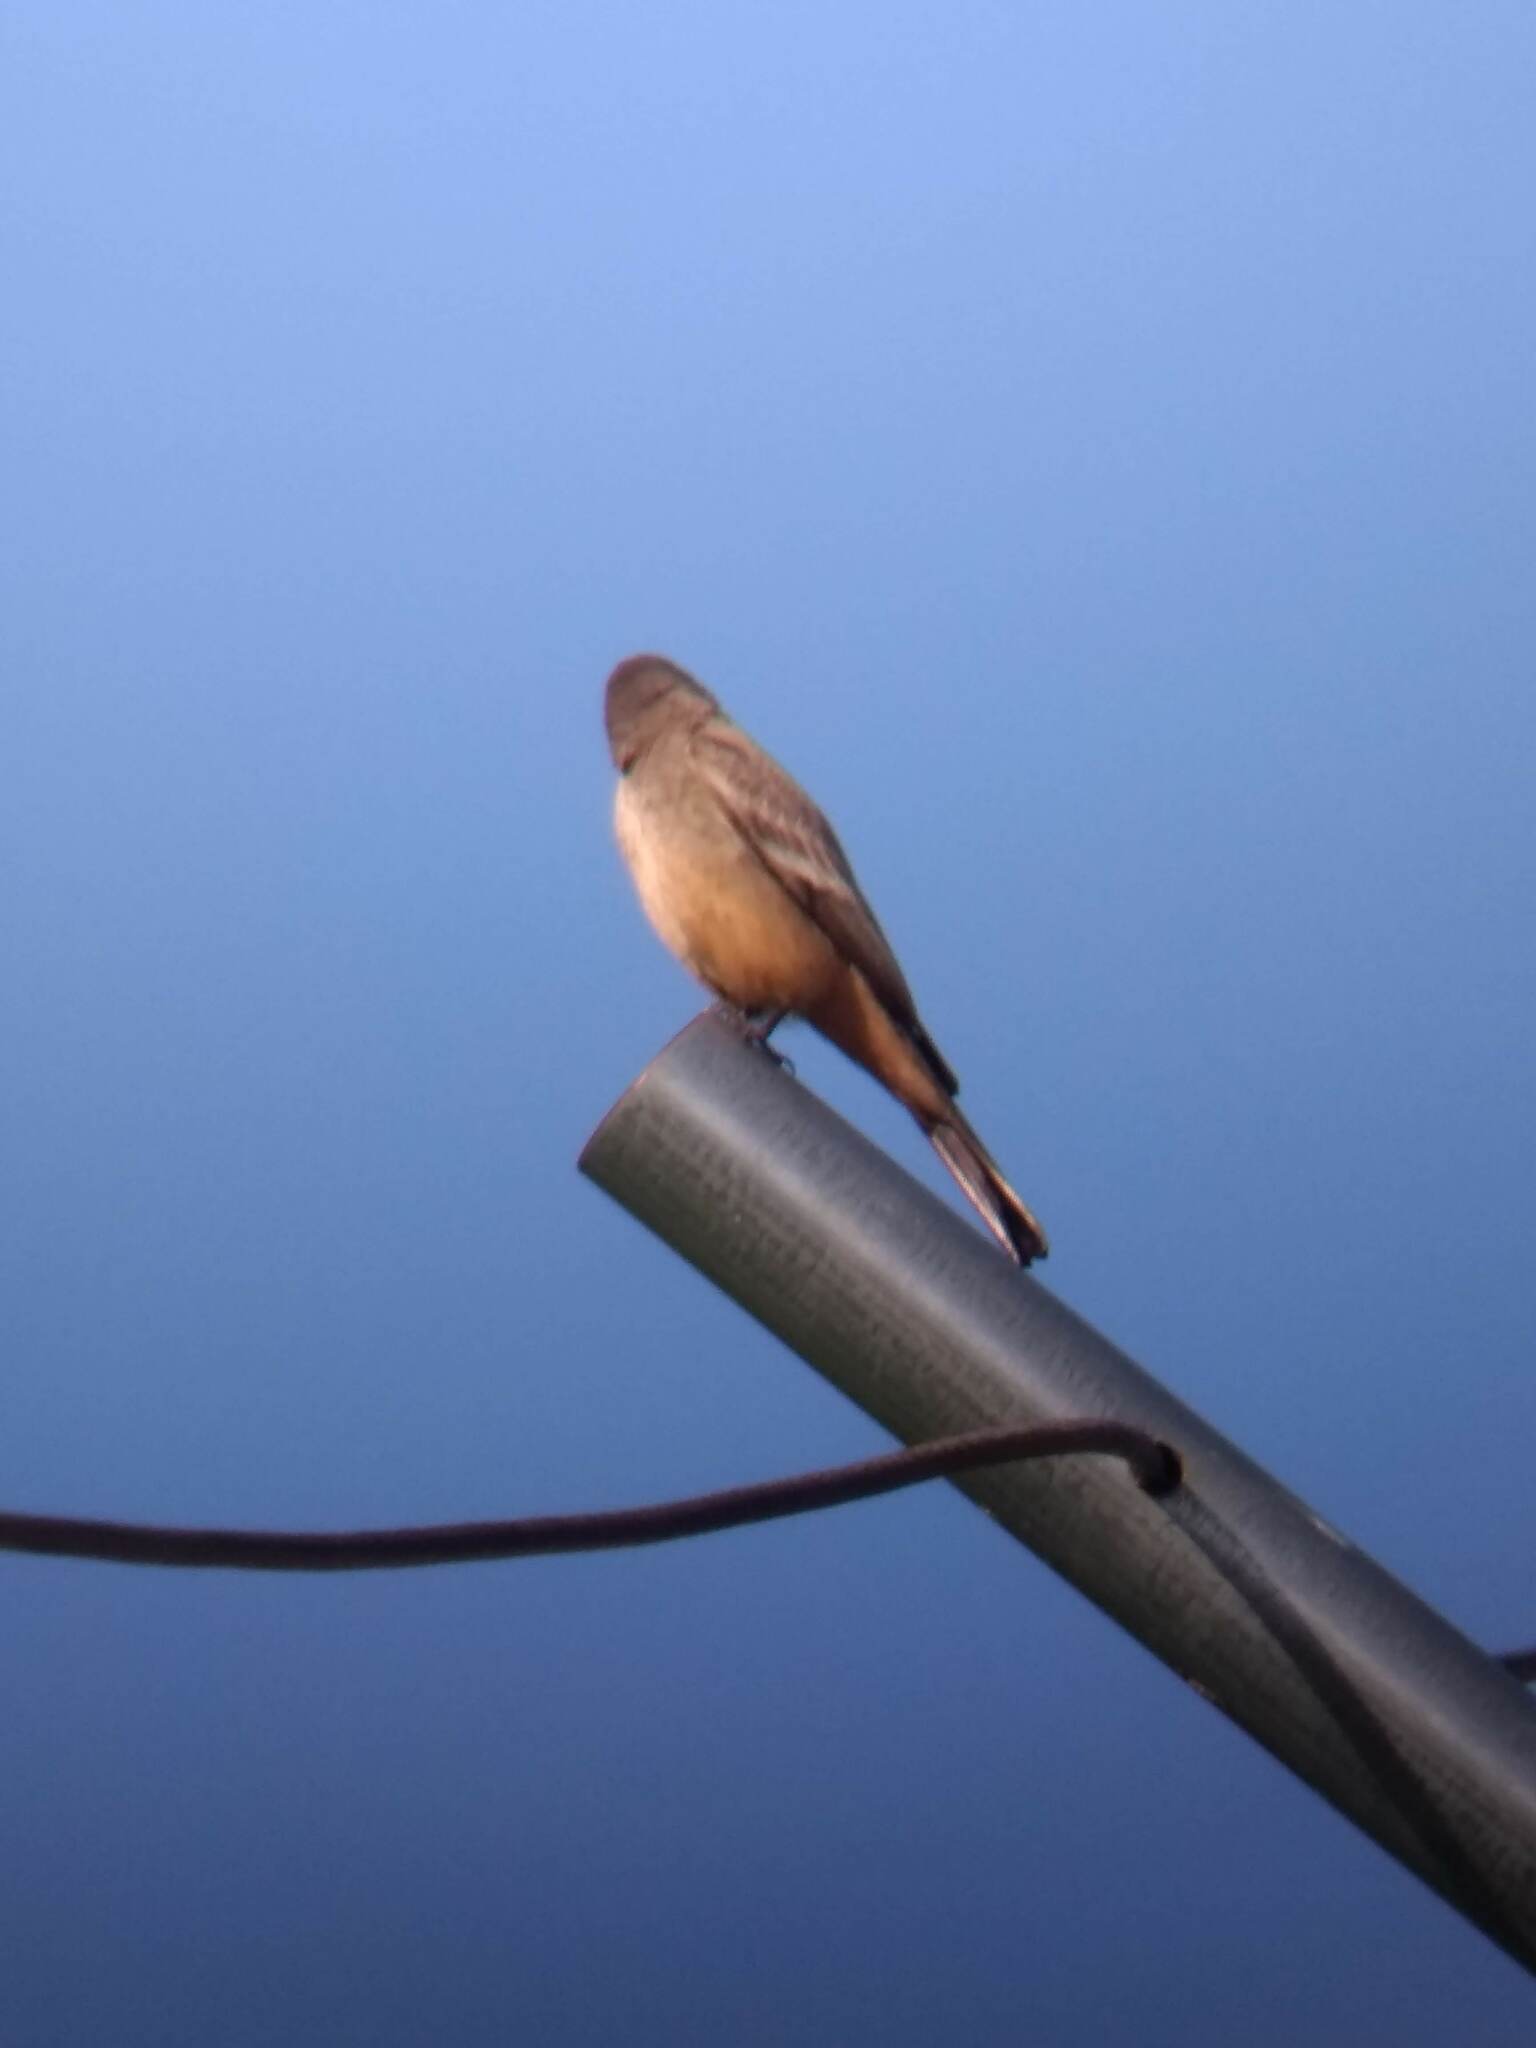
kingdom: Animalia
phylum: Chordata
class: Aves
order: Passeriformes
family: Tyrannidae
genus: Sayornis
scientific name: Sayornis saya
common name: Say's phoebe
